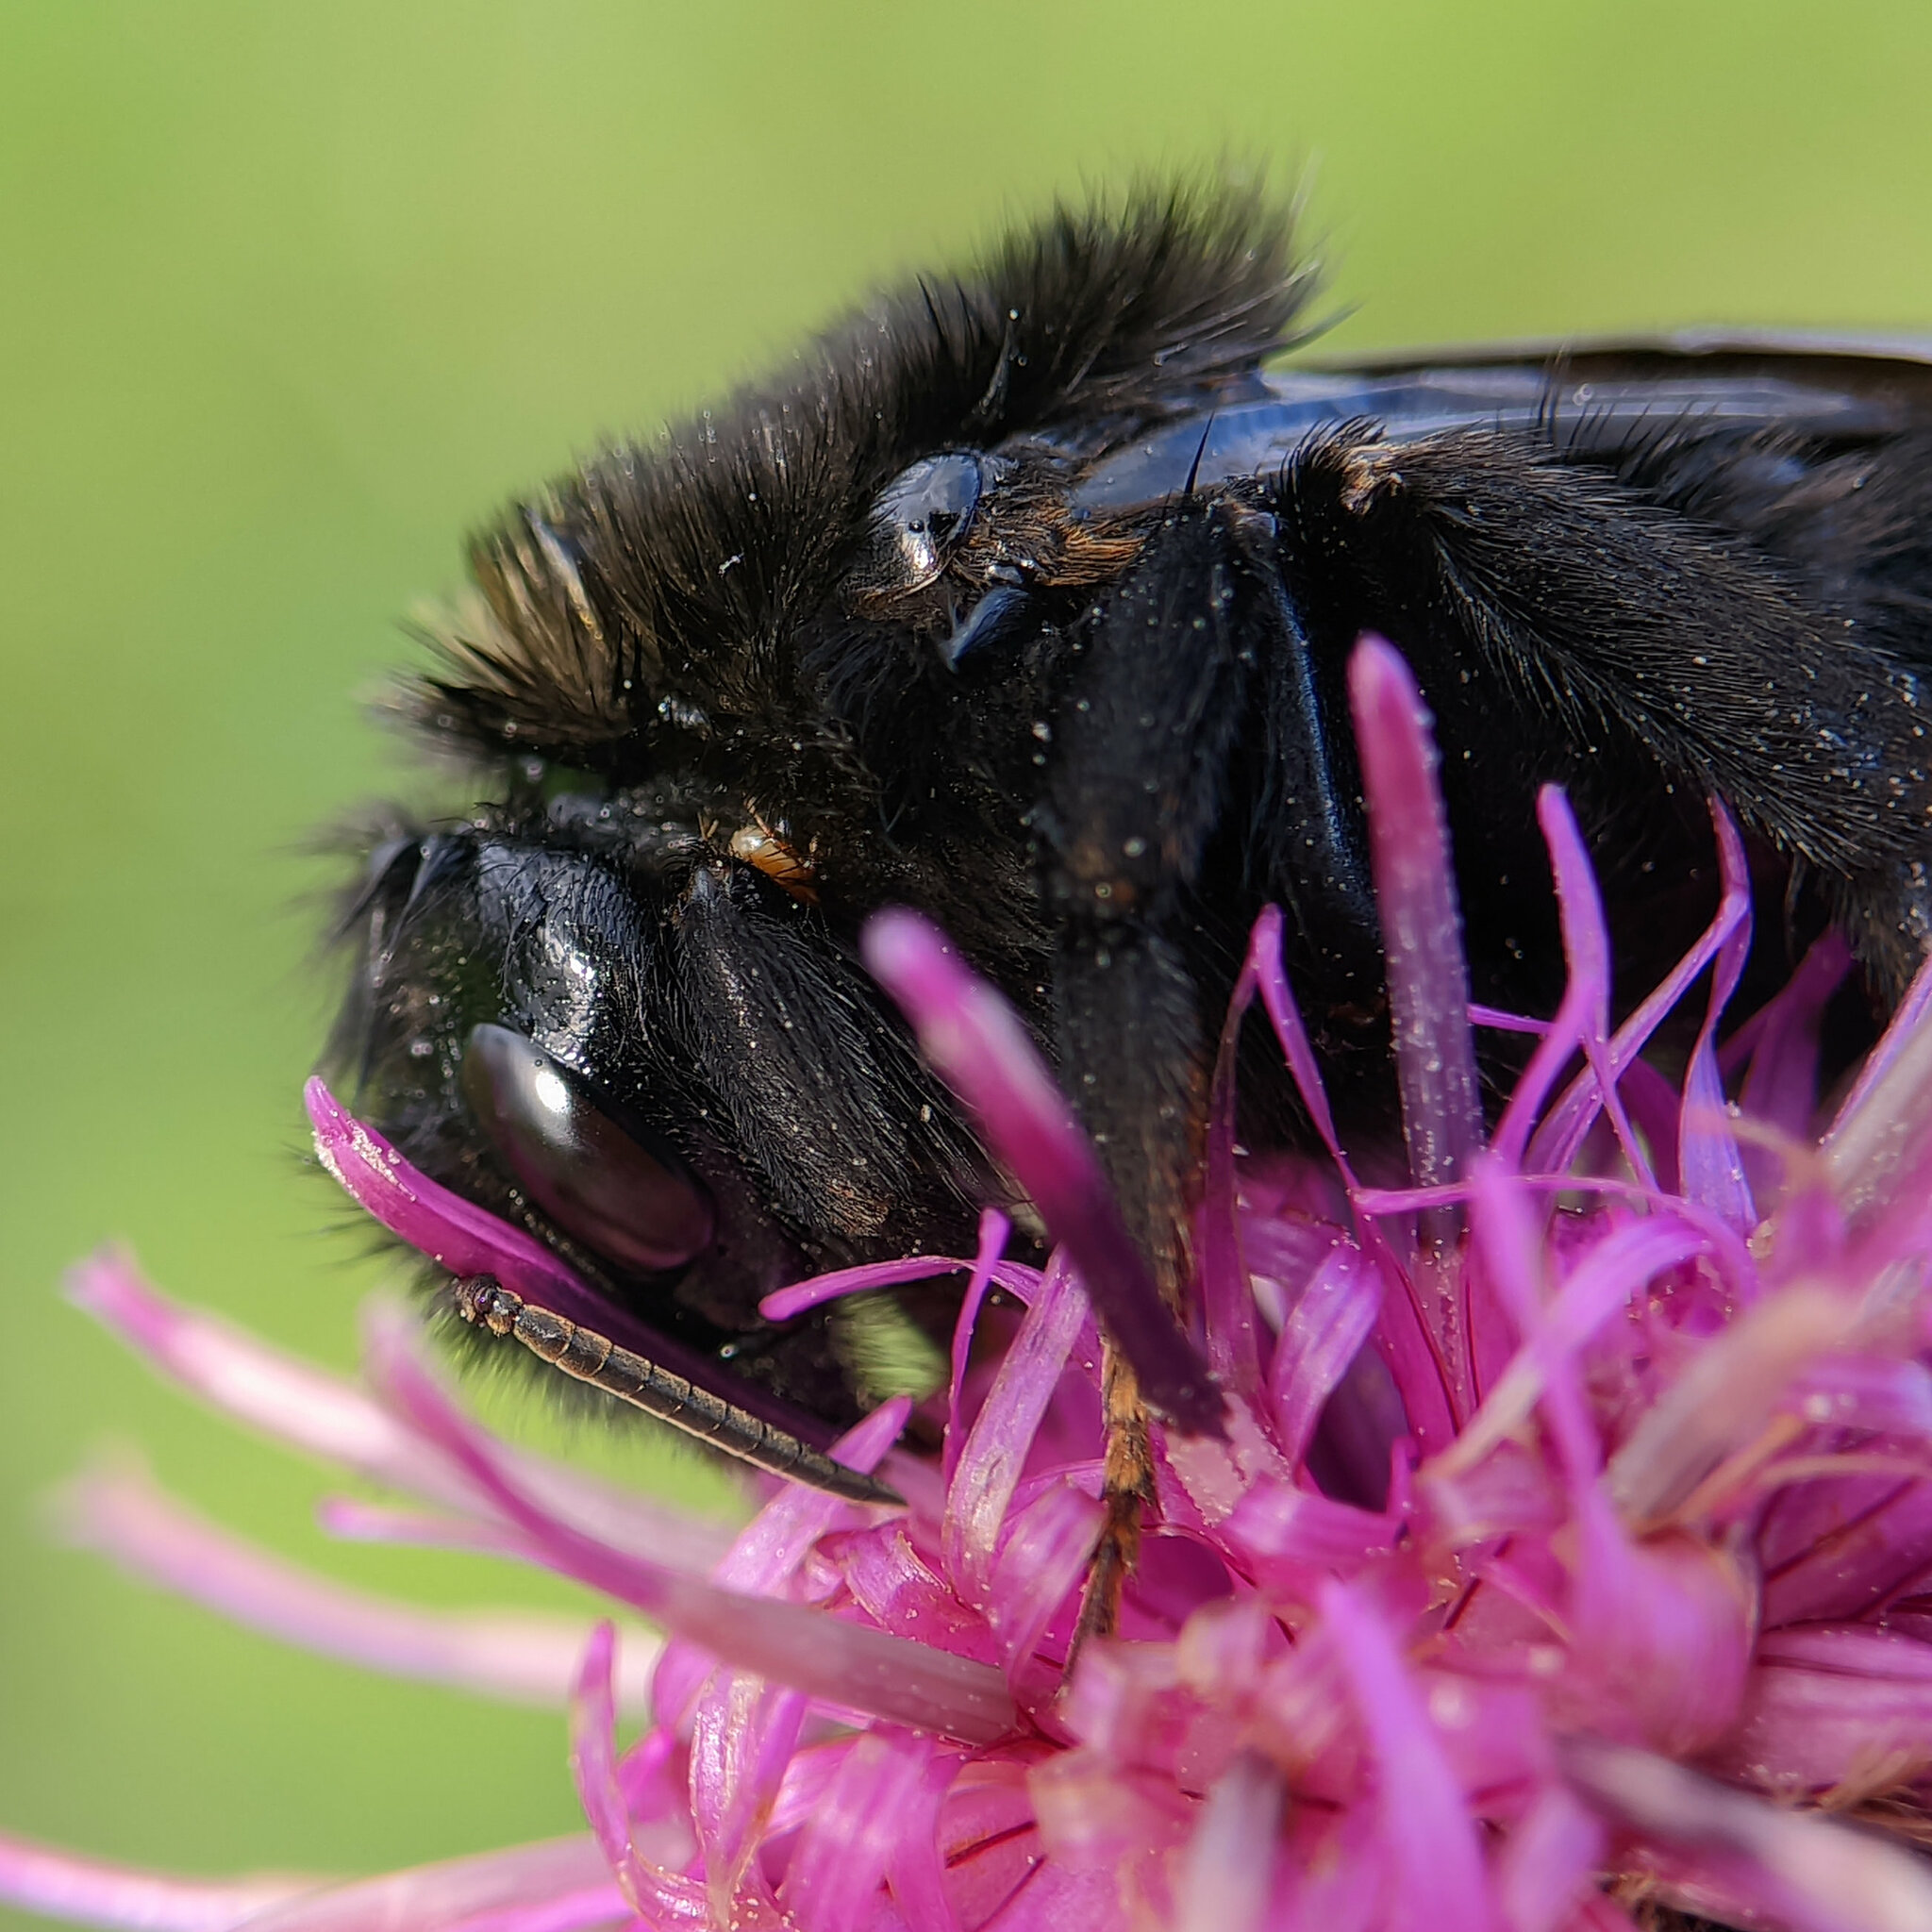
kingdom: Animalia
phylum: Arthropoda
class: Insecta
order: Hymenoptera
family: Apidae
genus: Bombus
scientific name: Bombus rupestris
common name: Hill cuckoo-bee
